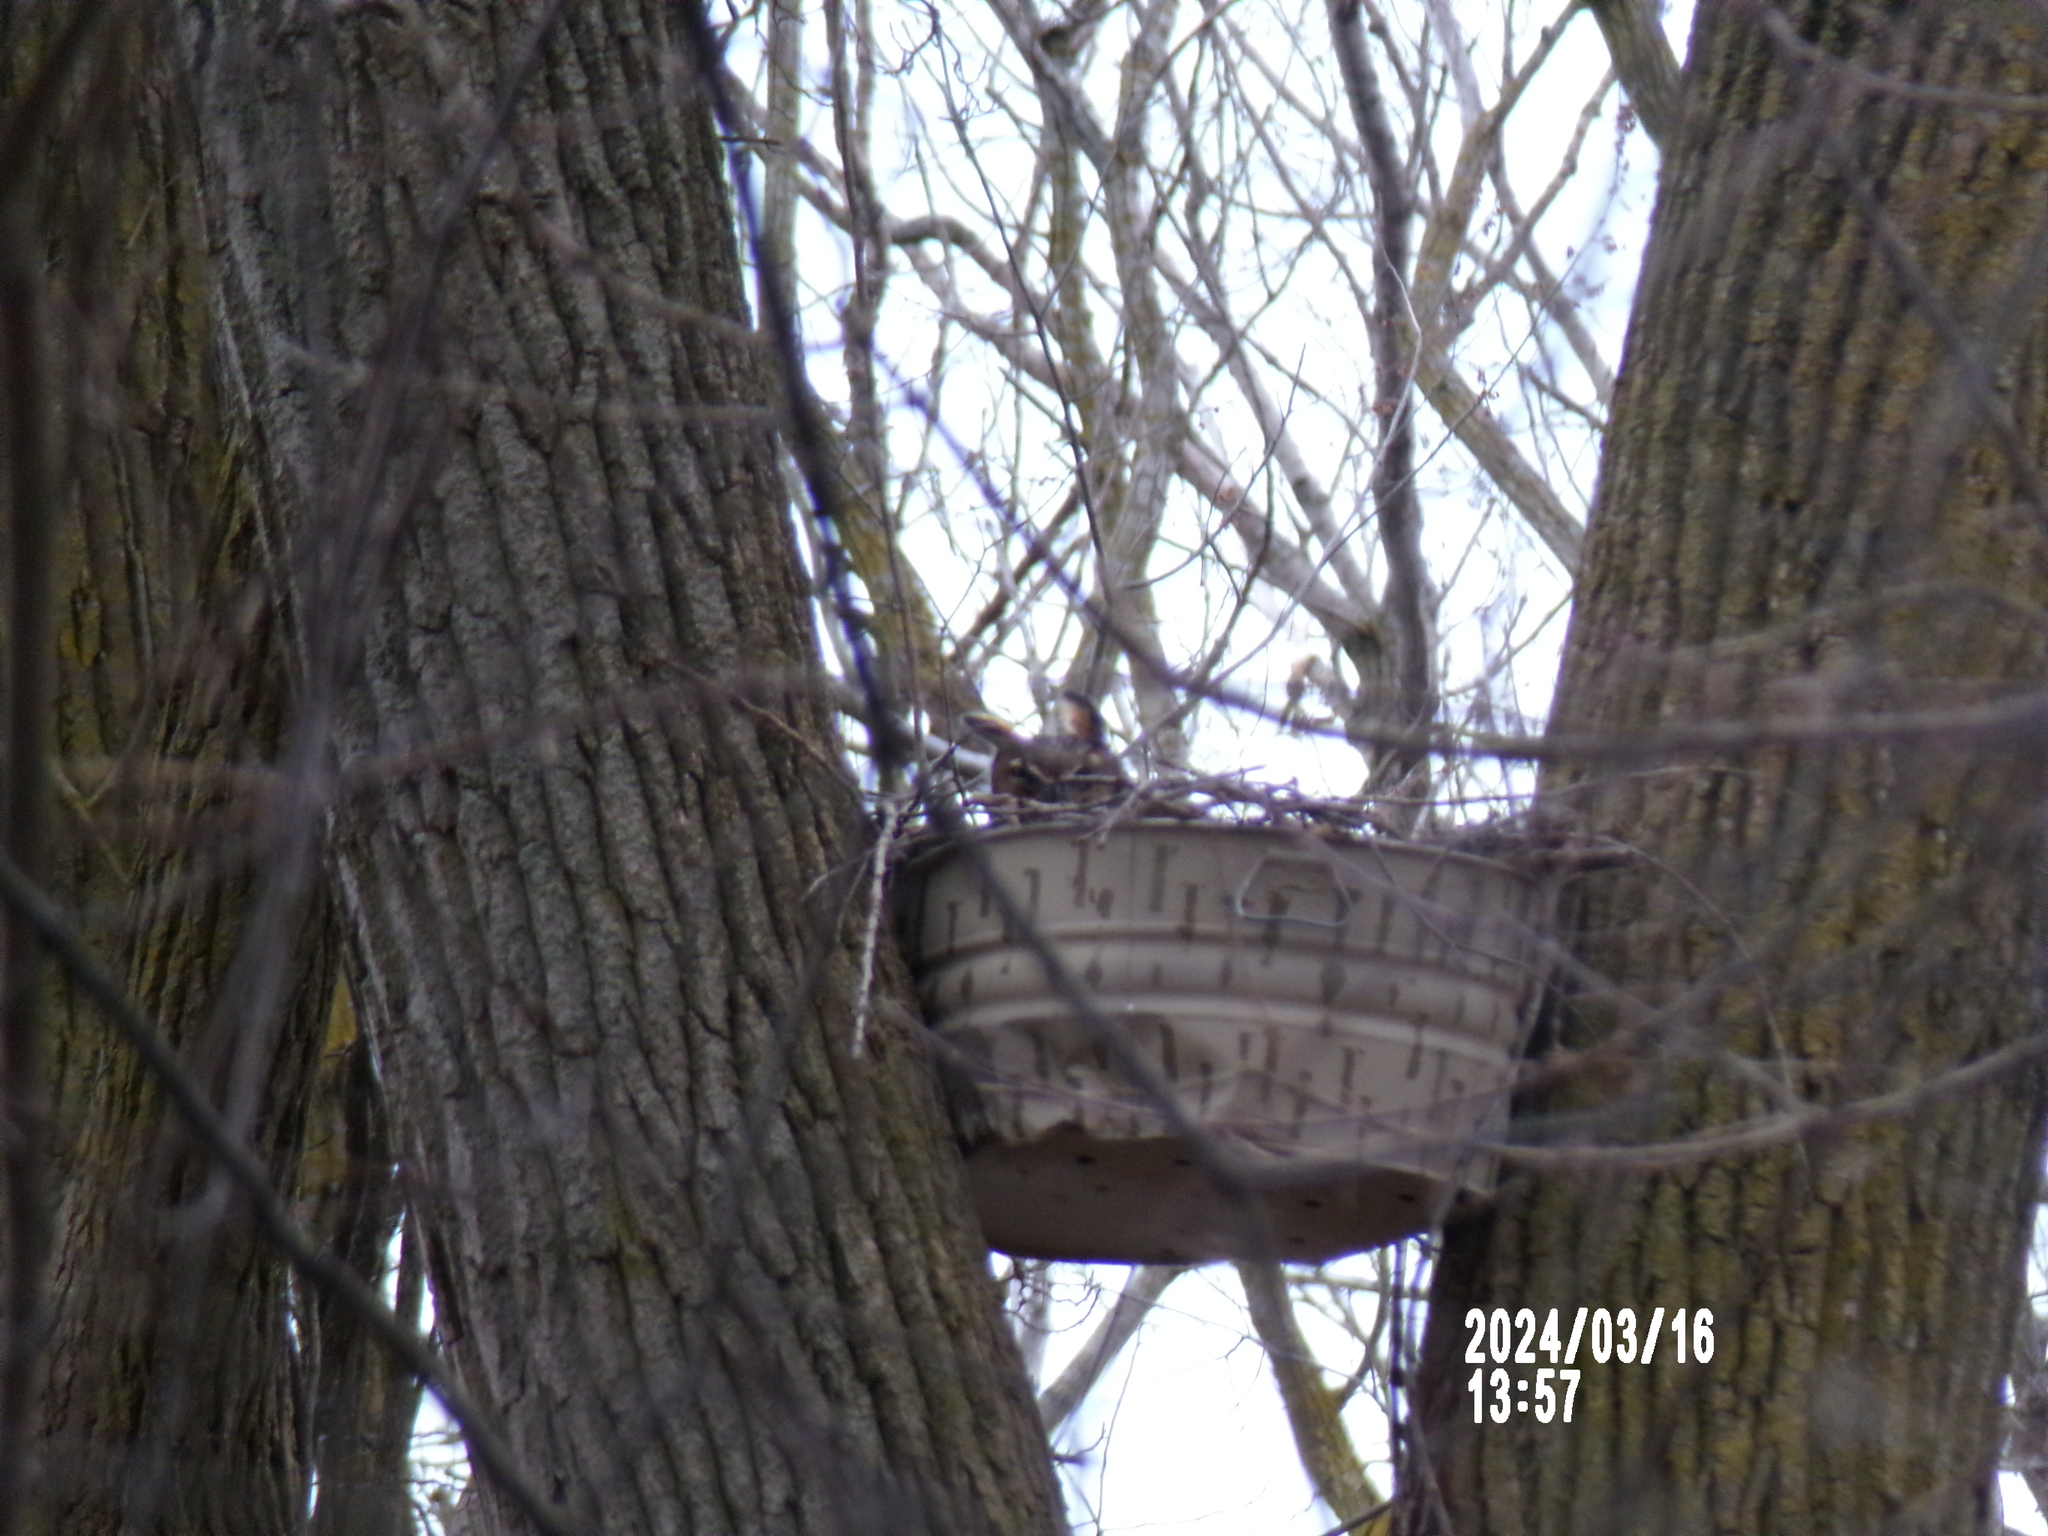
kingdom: Animalia
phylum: Chordata
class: Aves
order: Strigiformes
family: Strigidae
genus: Bubo
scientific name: Bubo virginianus
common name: Great horned owl
